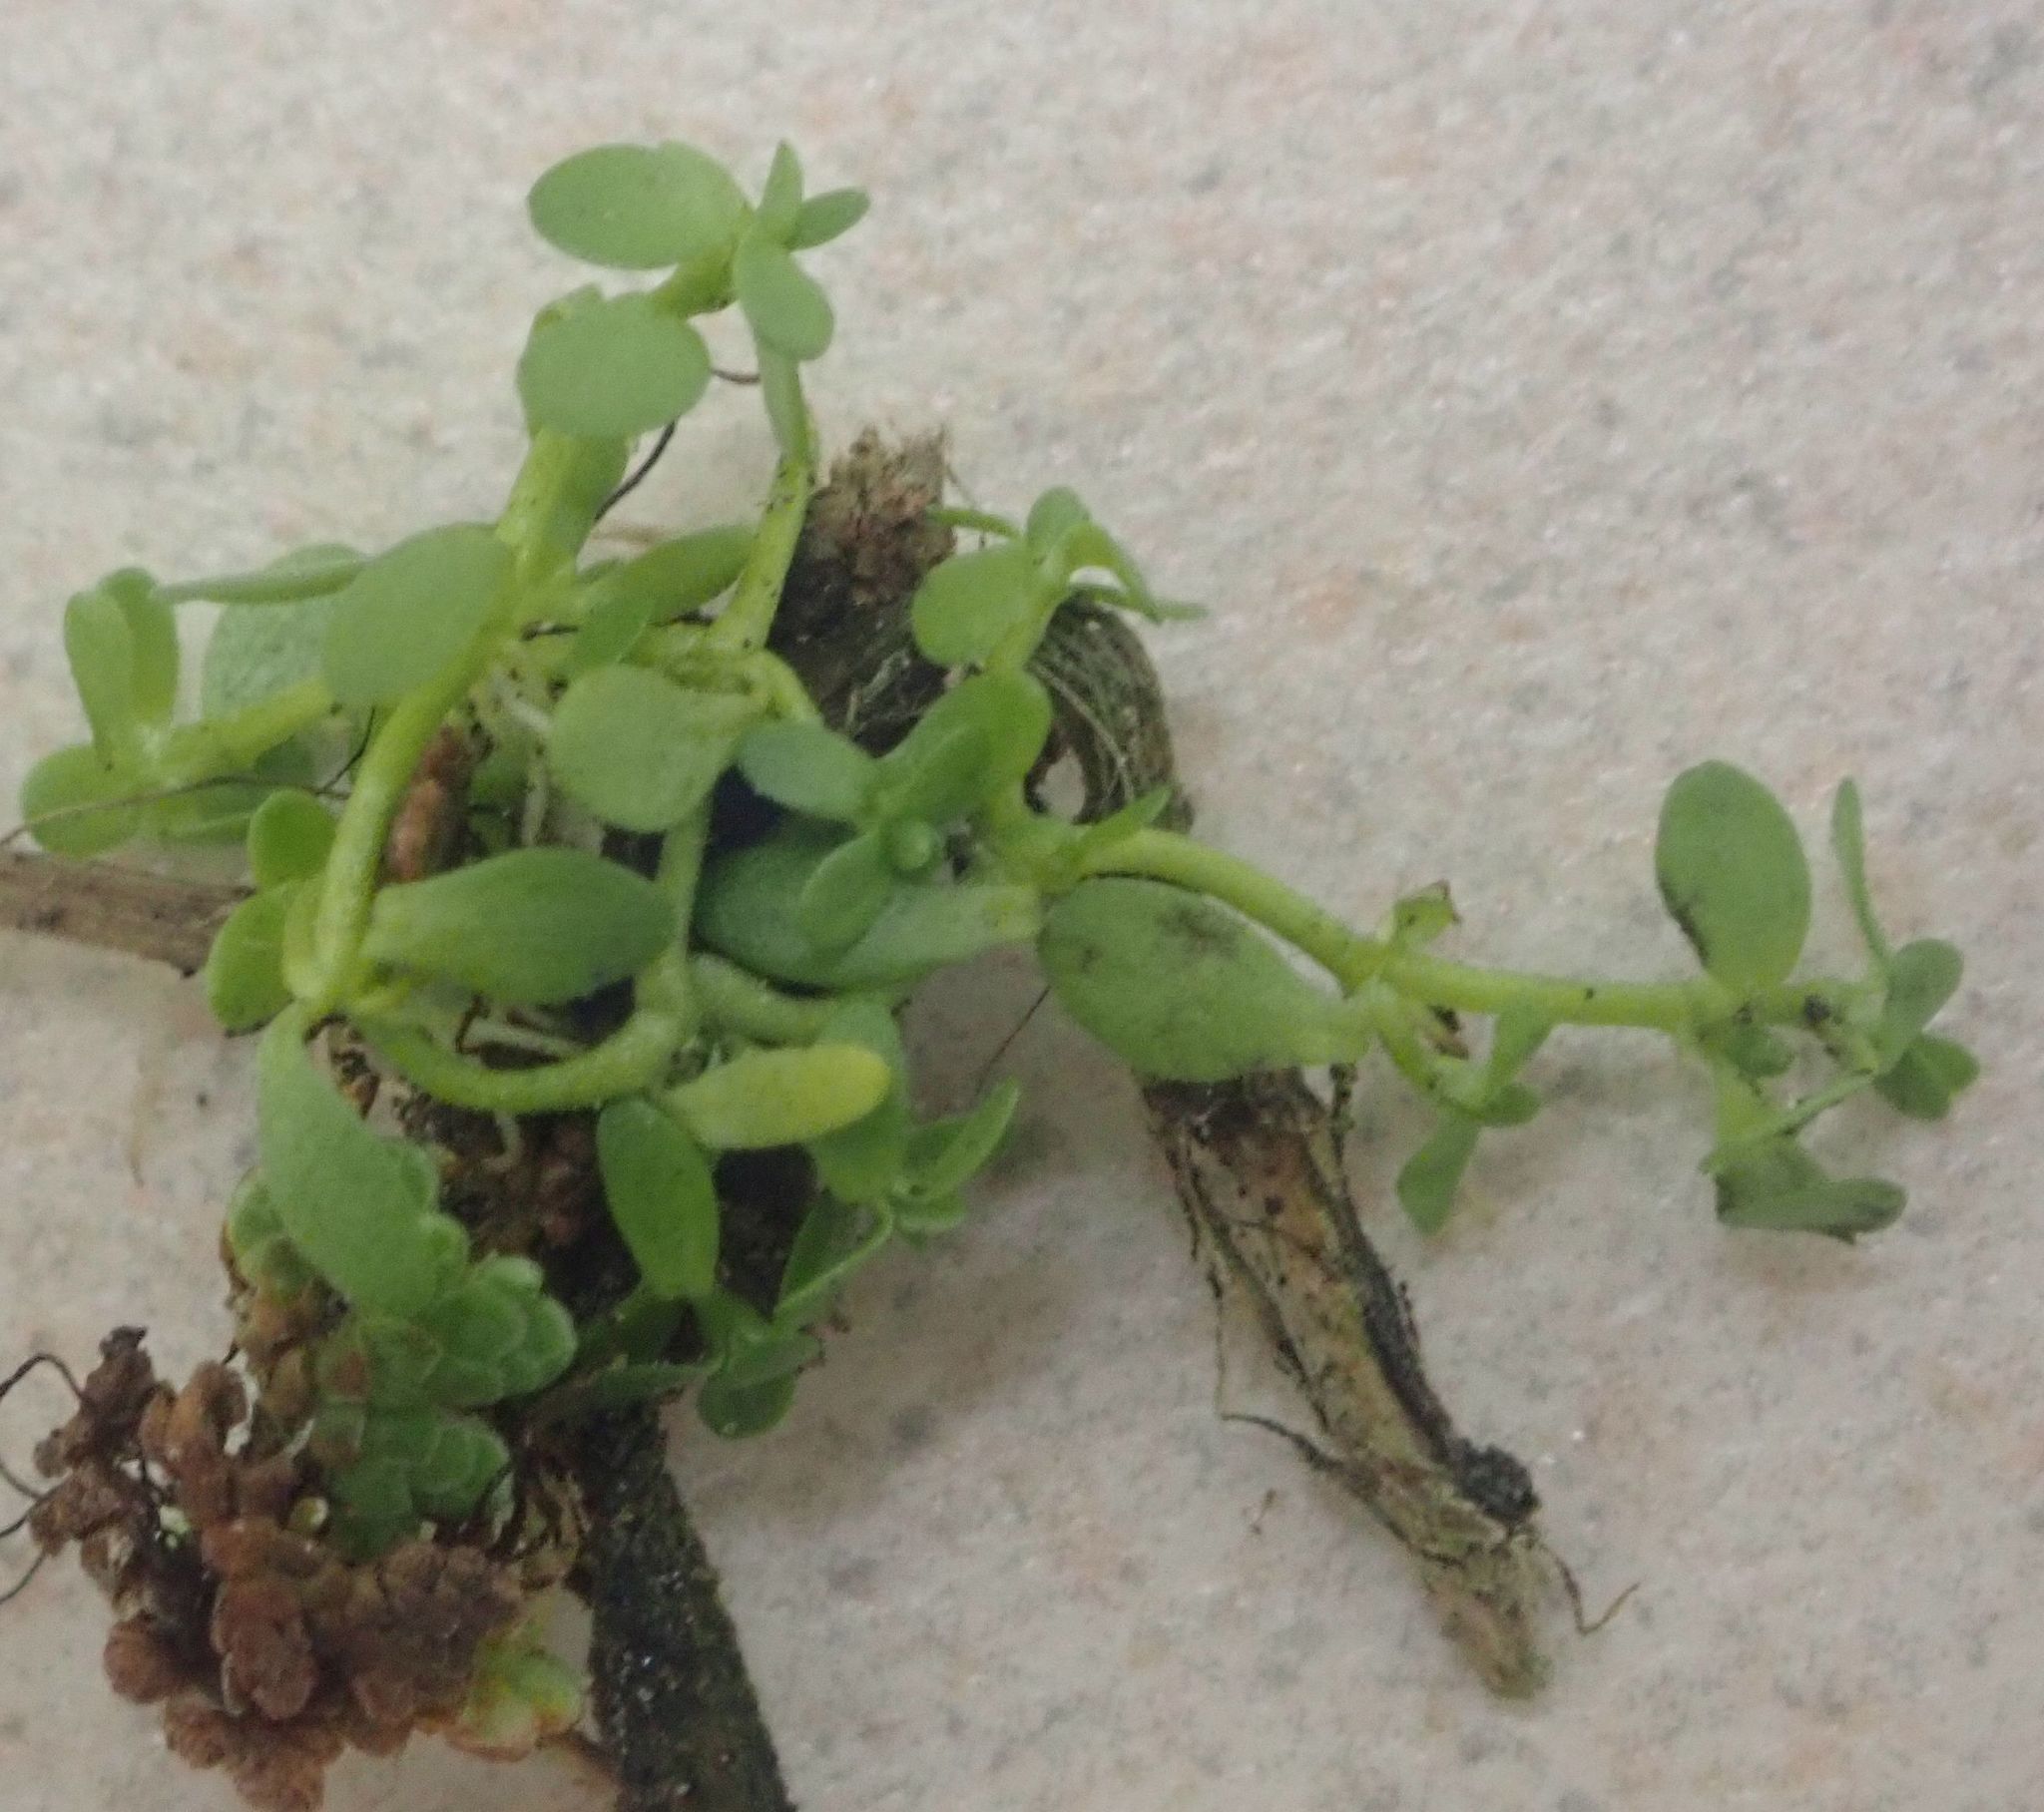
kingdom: Plantae
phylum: Tracheophyta
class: Magnoliopsida
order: Lamiales
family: Plantaginaceae
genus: Callitriche
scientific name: Callitriche stagnalis
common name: Common water-starwort
